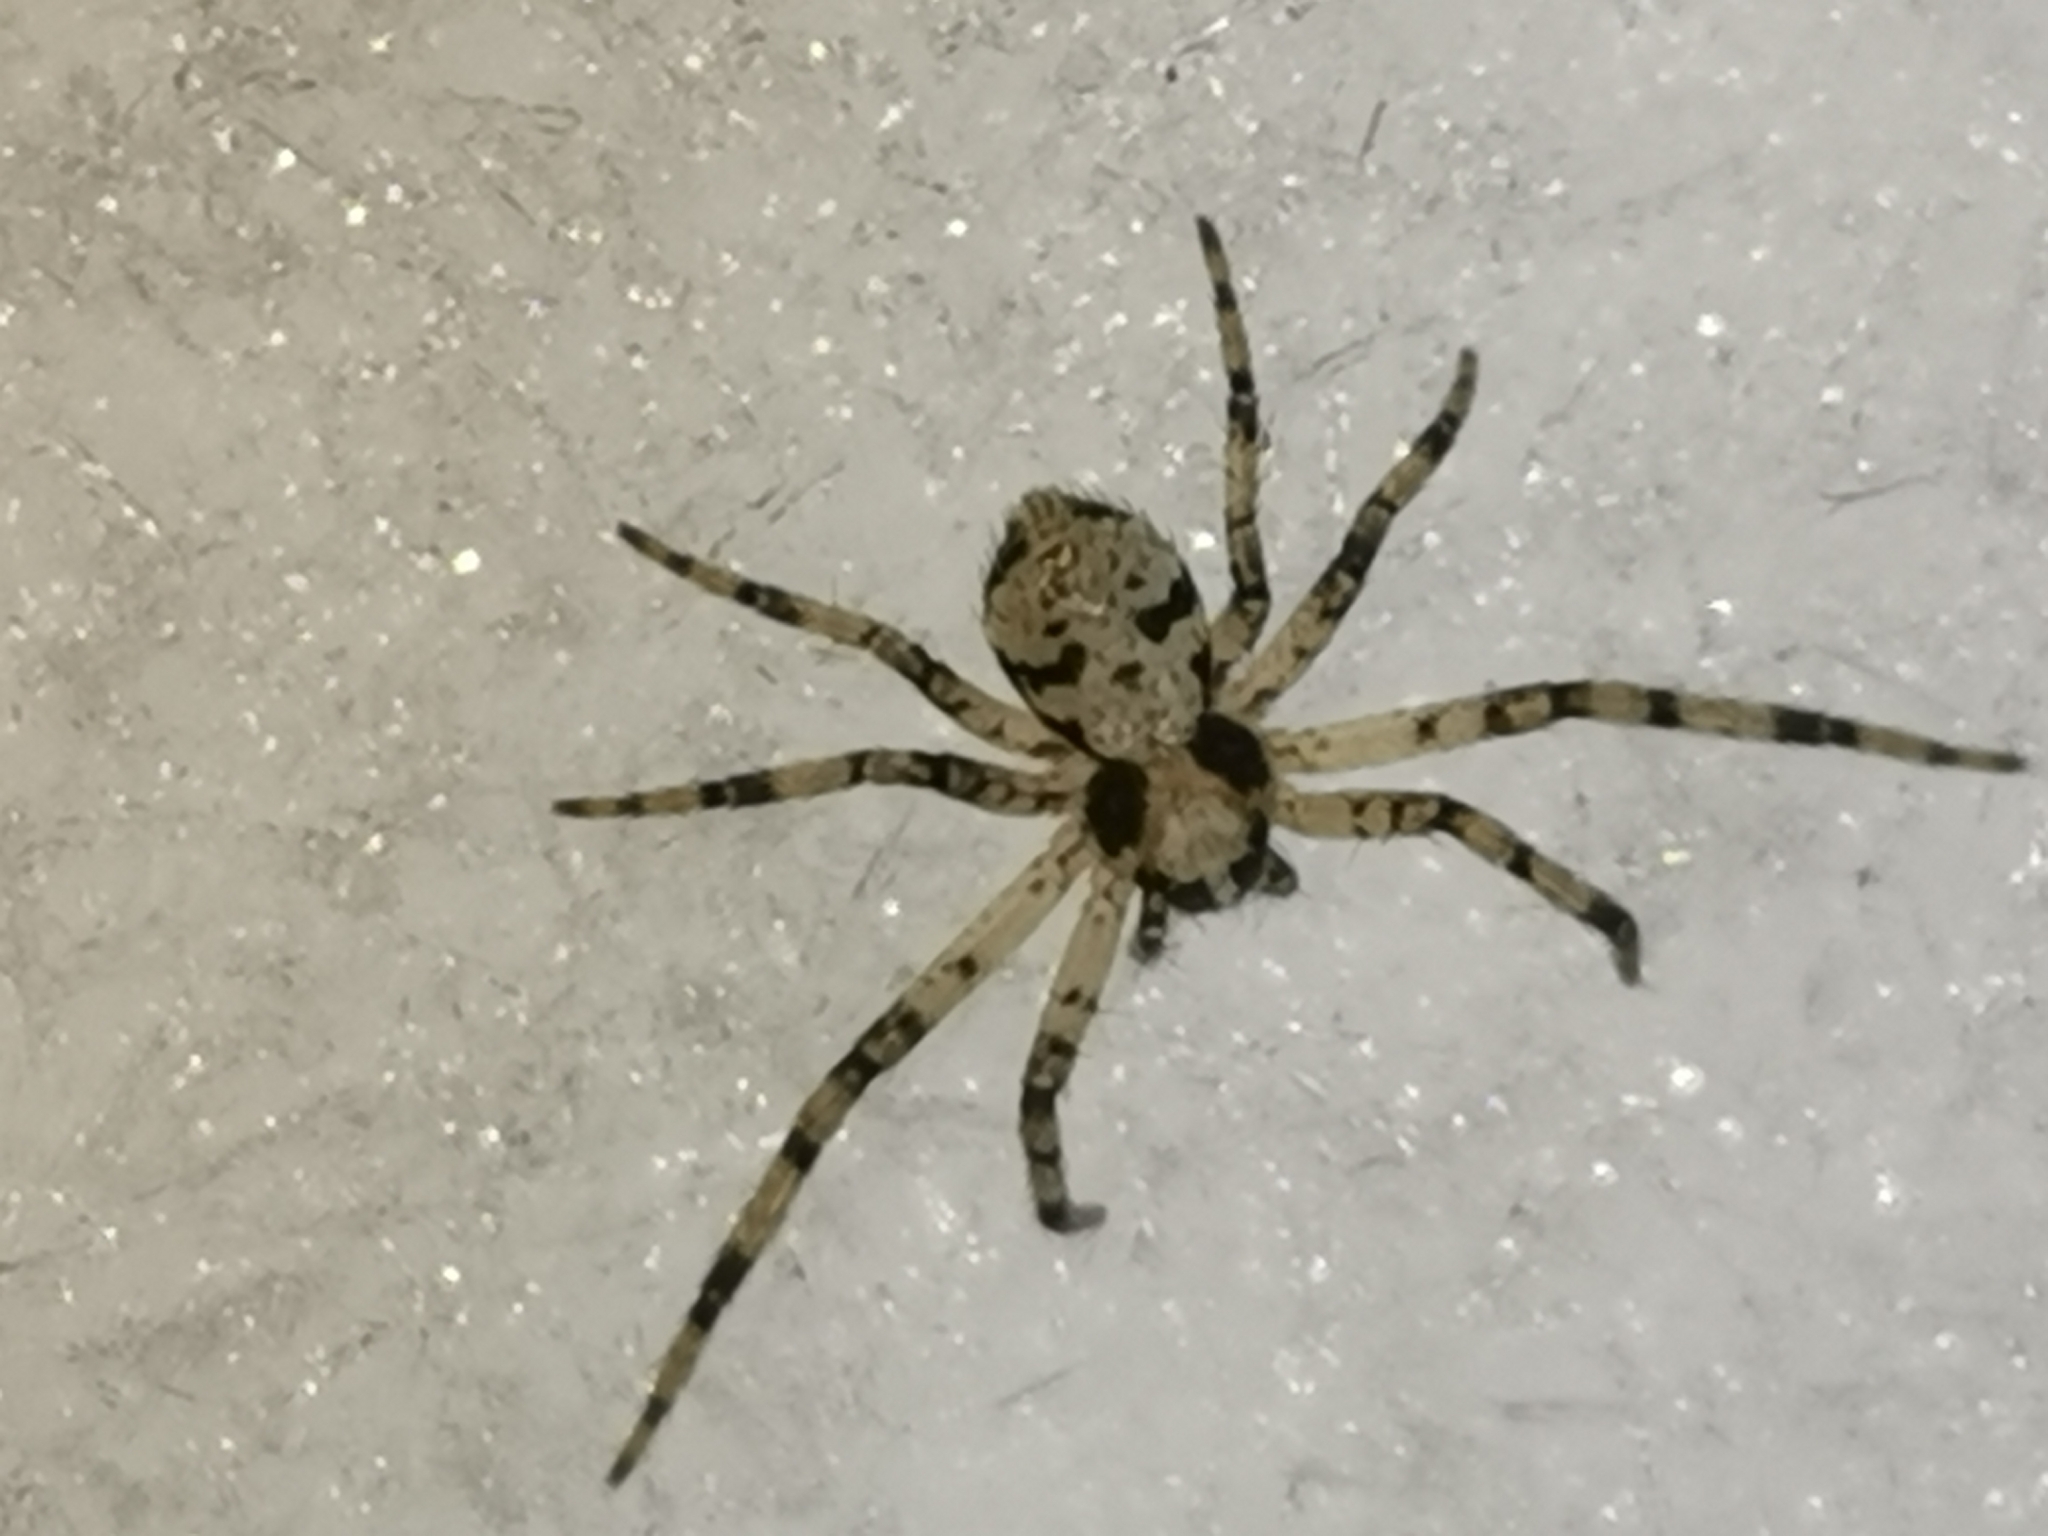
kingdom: Animalia
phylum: Arthropoda
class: Arachnida
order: Araneae
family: Philodromidae
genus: Philodromus
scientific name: Philodromus margaritatus
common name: Lichen running-spider
